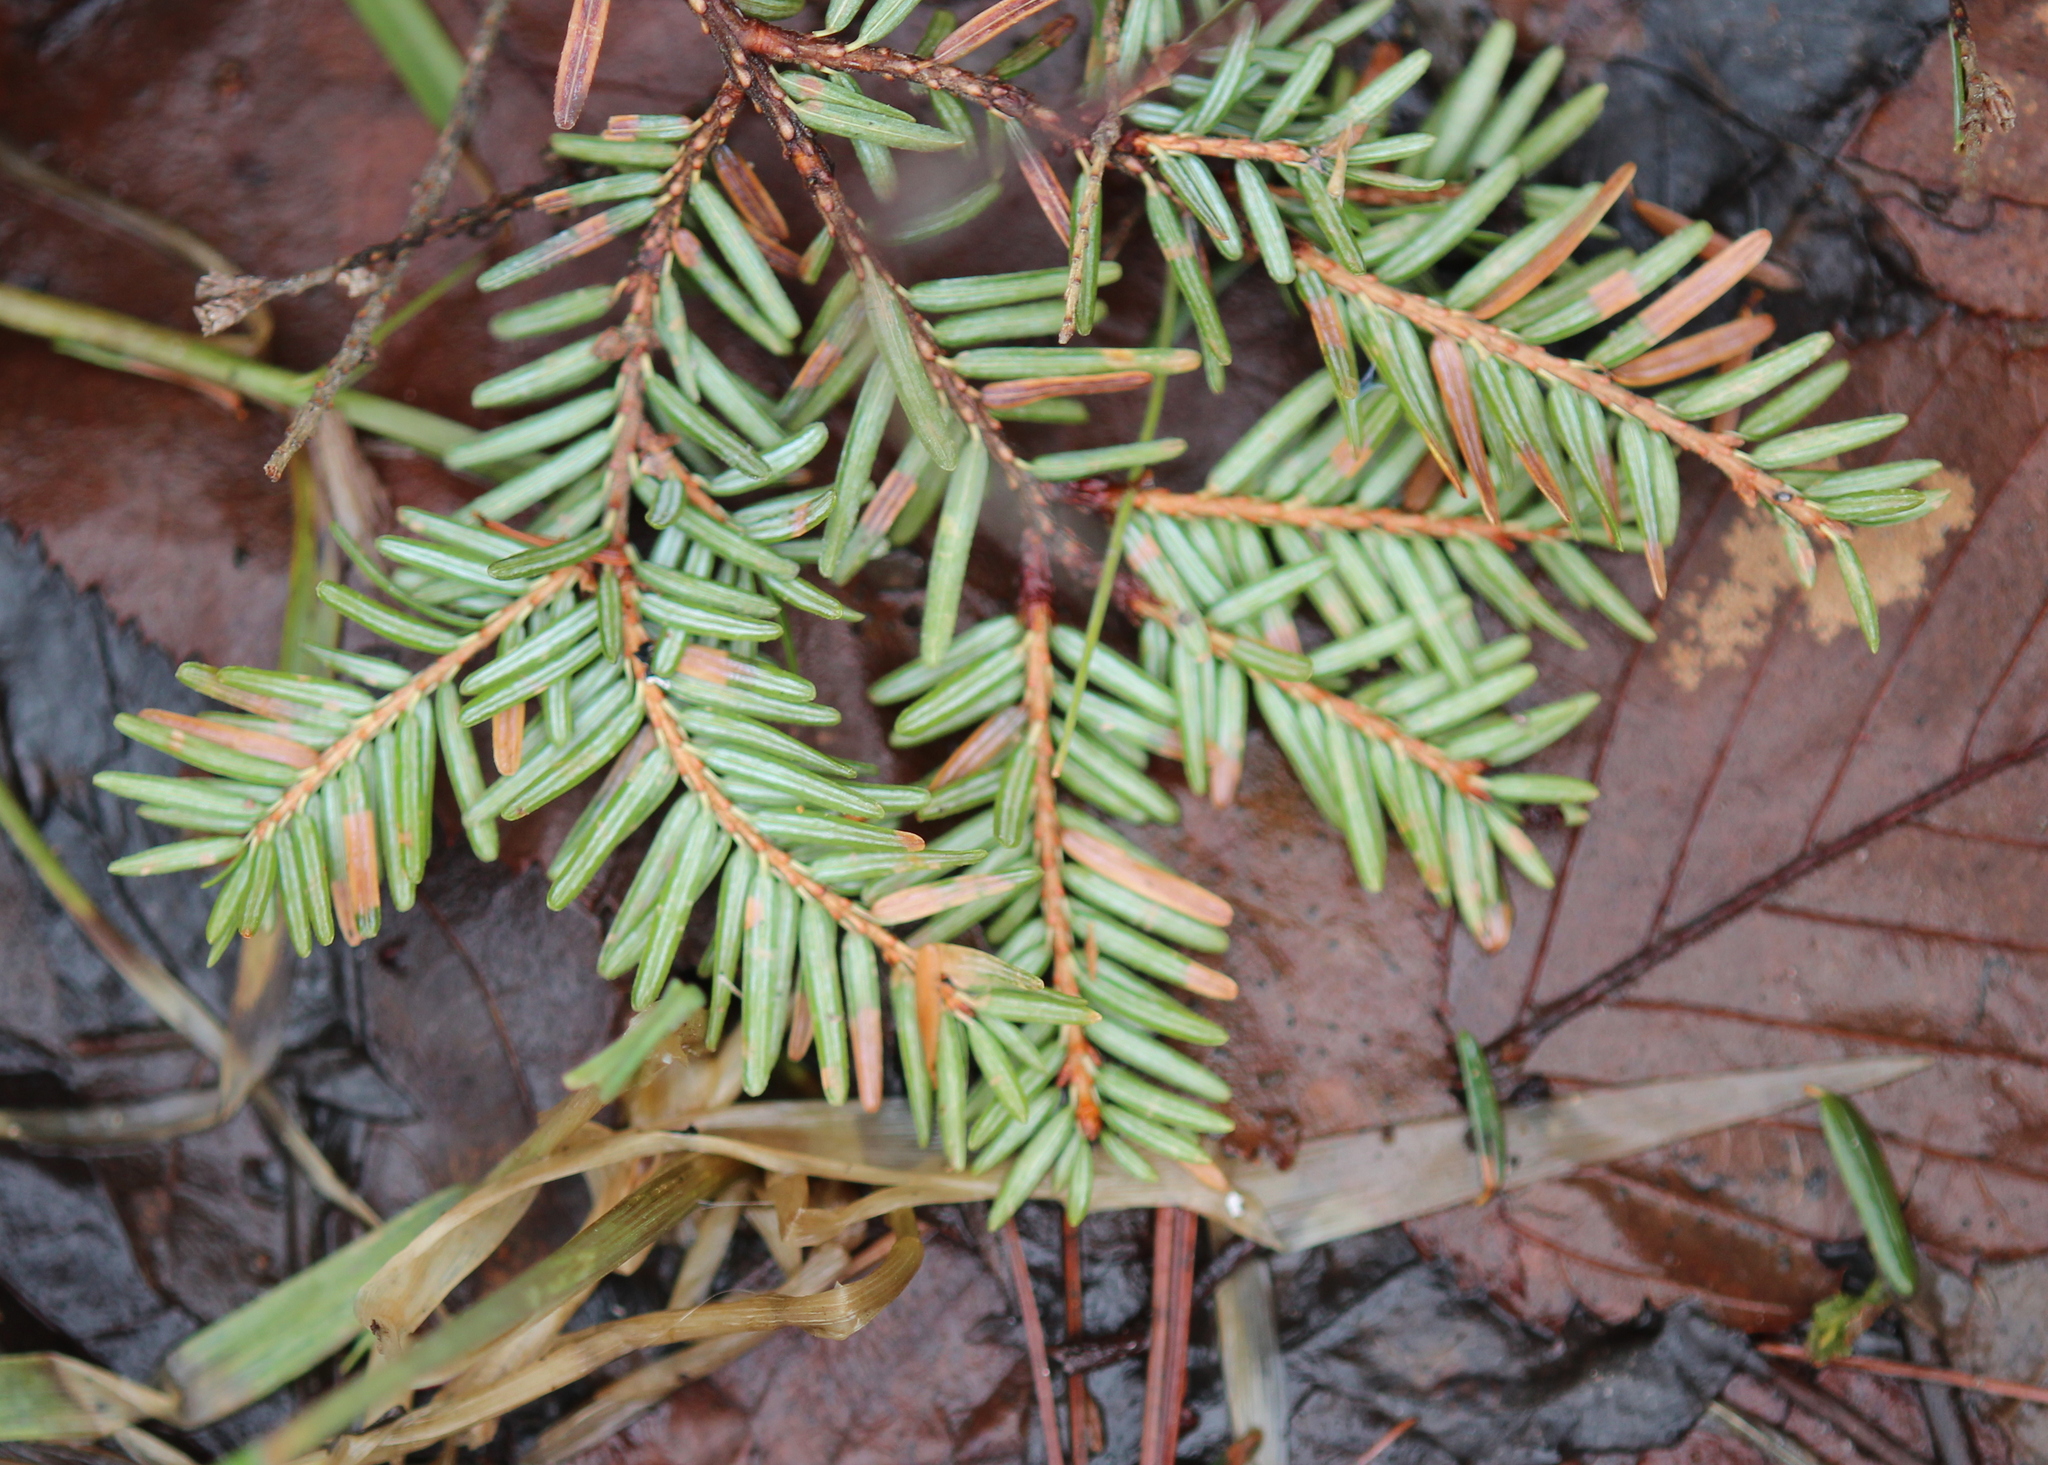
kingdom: Plantae
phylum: Tracheophyta
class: Pinopsida
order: Pinales
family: Pinaceae
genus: Tsuga
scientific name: Tsuga canadensis
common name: Eastern hemlock
